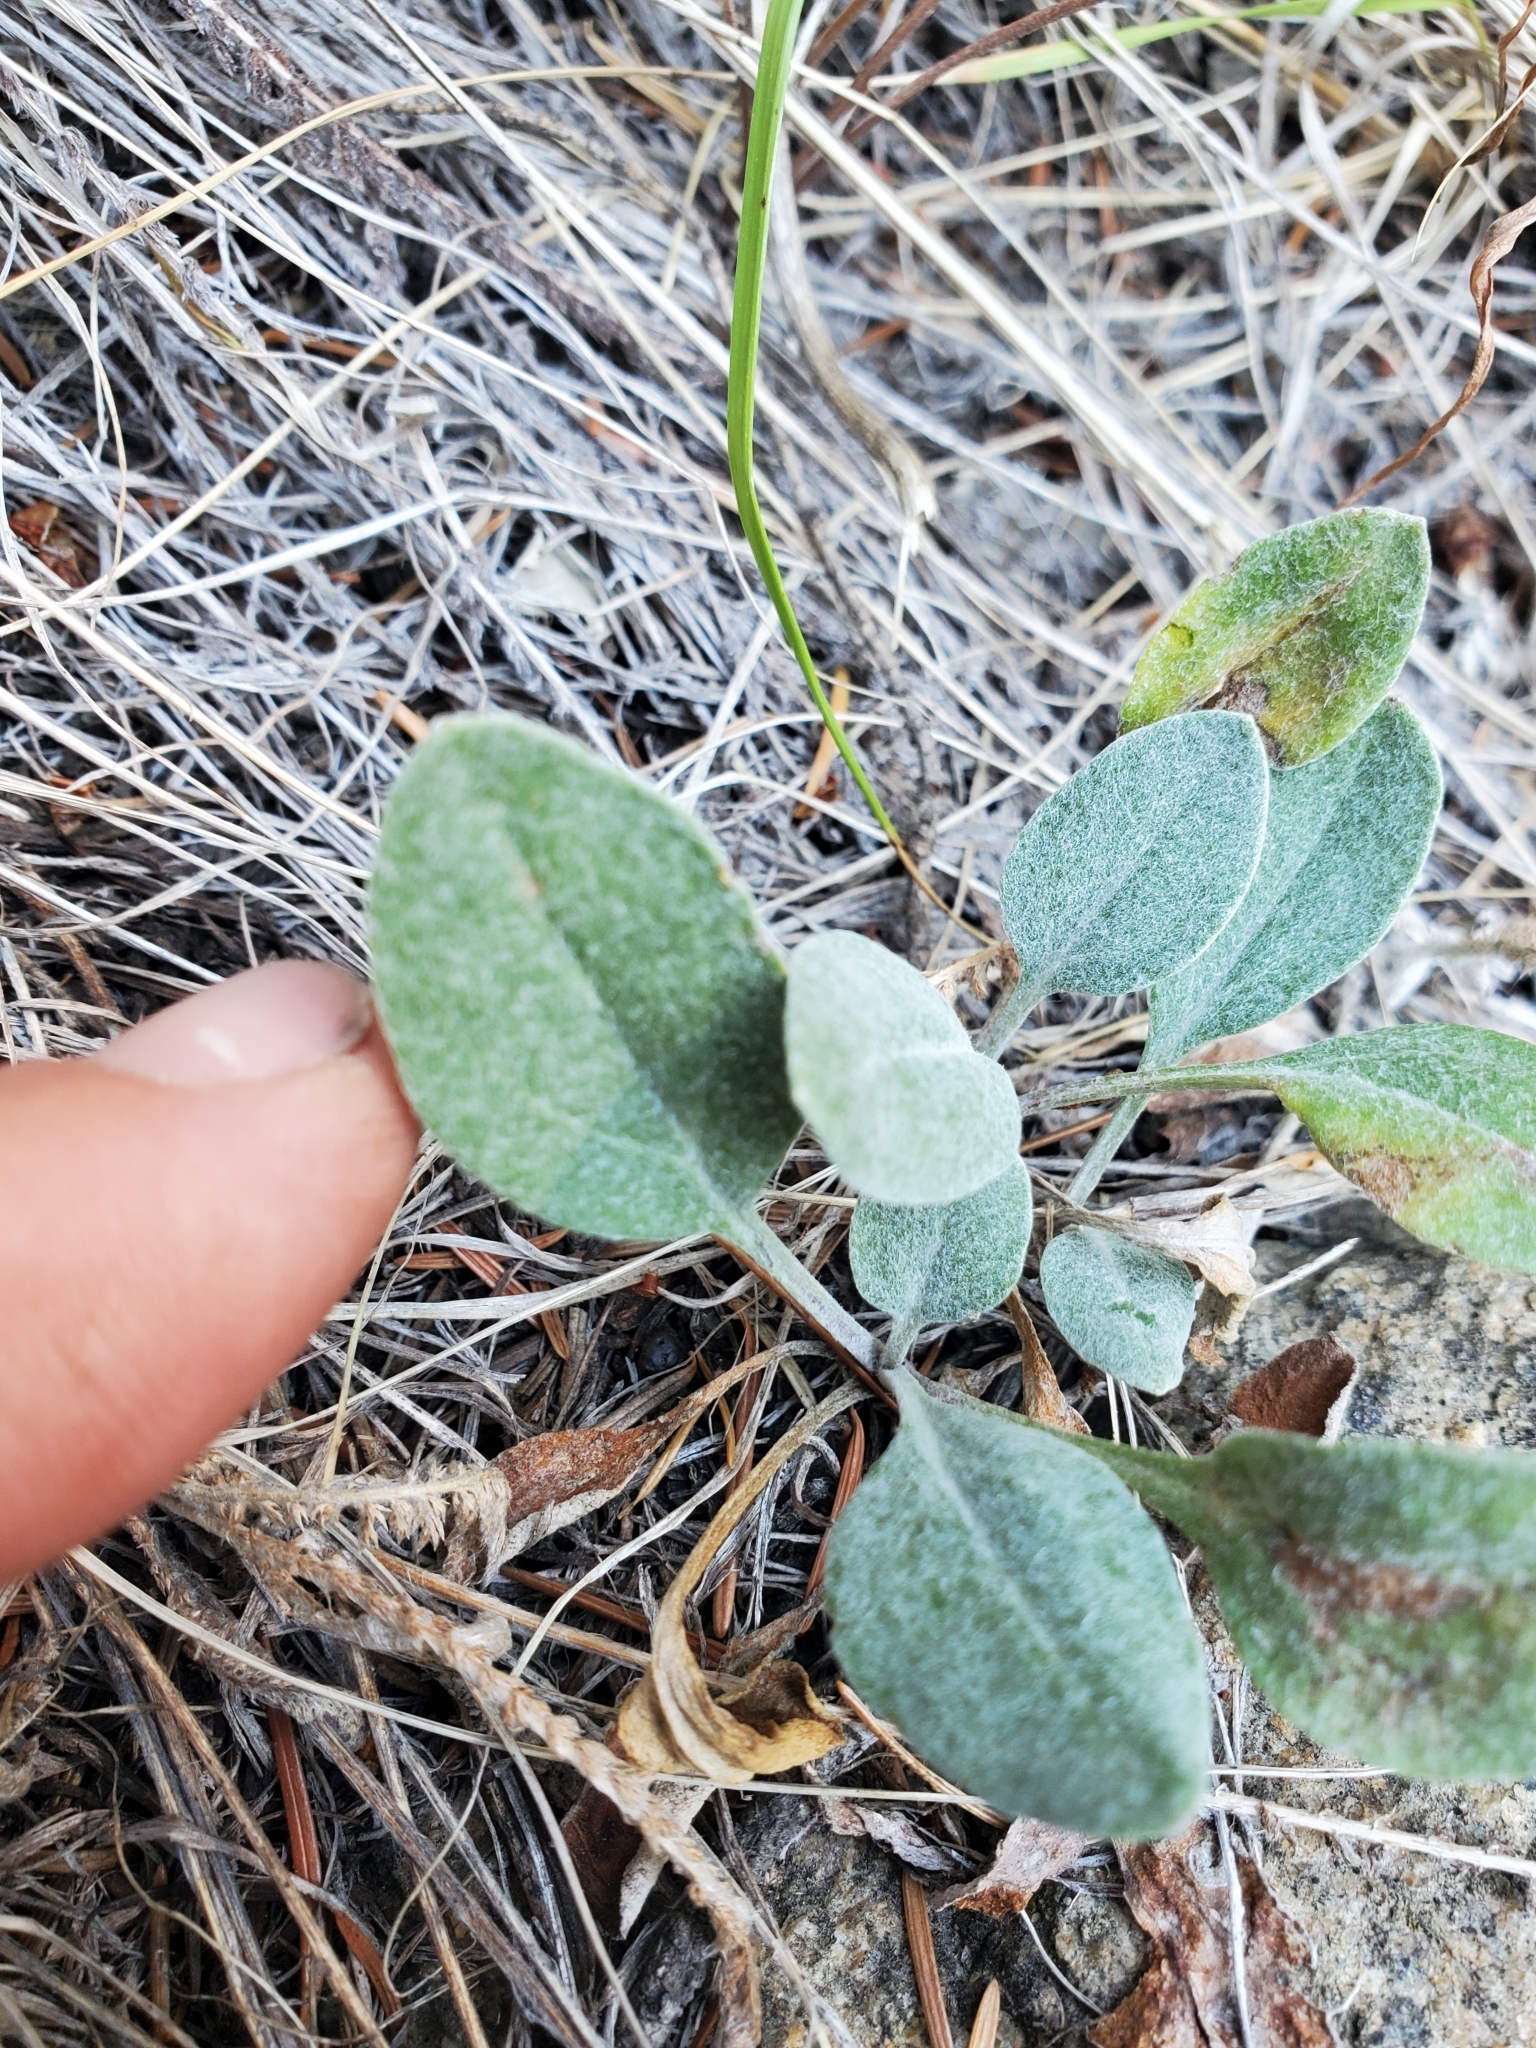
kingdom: Plantae
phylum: Tracheophyta
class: Magnoliopsida
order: Asterales
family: Asteraceae
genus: Packera
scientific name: Packera cana
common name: Woolly groundsel
